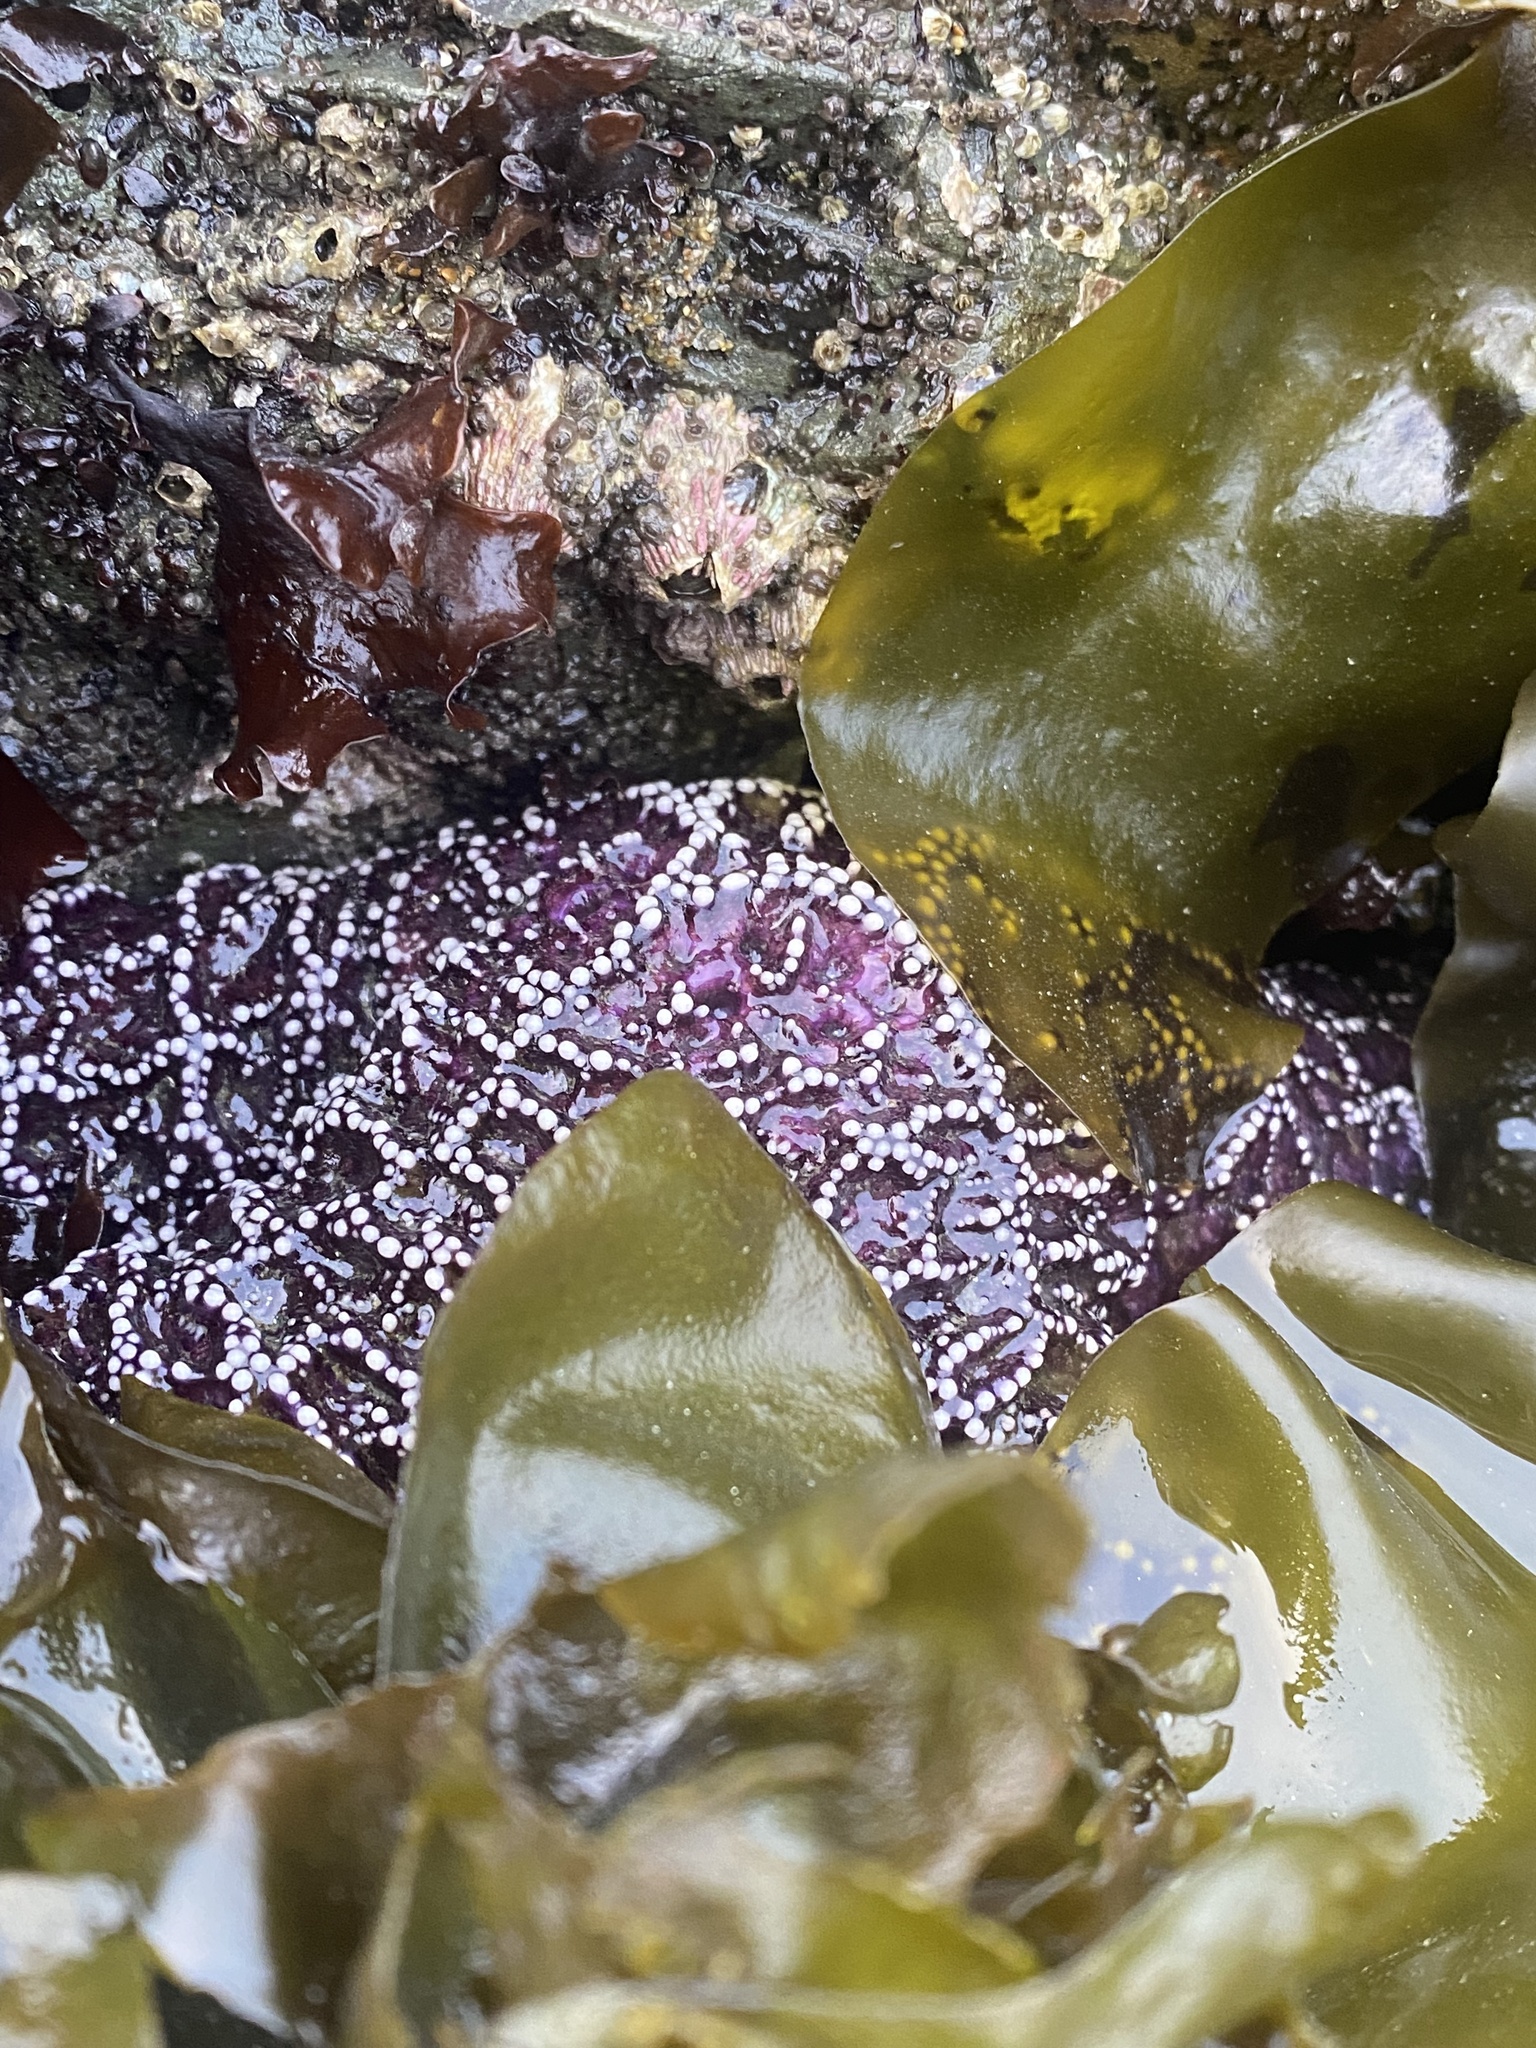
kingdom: Animalia
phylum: Echinodermata
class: Asteroidea
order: Forcipulatida
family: Asteriidae
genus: Pisaster
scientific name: Pisaster ochraceus
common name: Ochre stars
